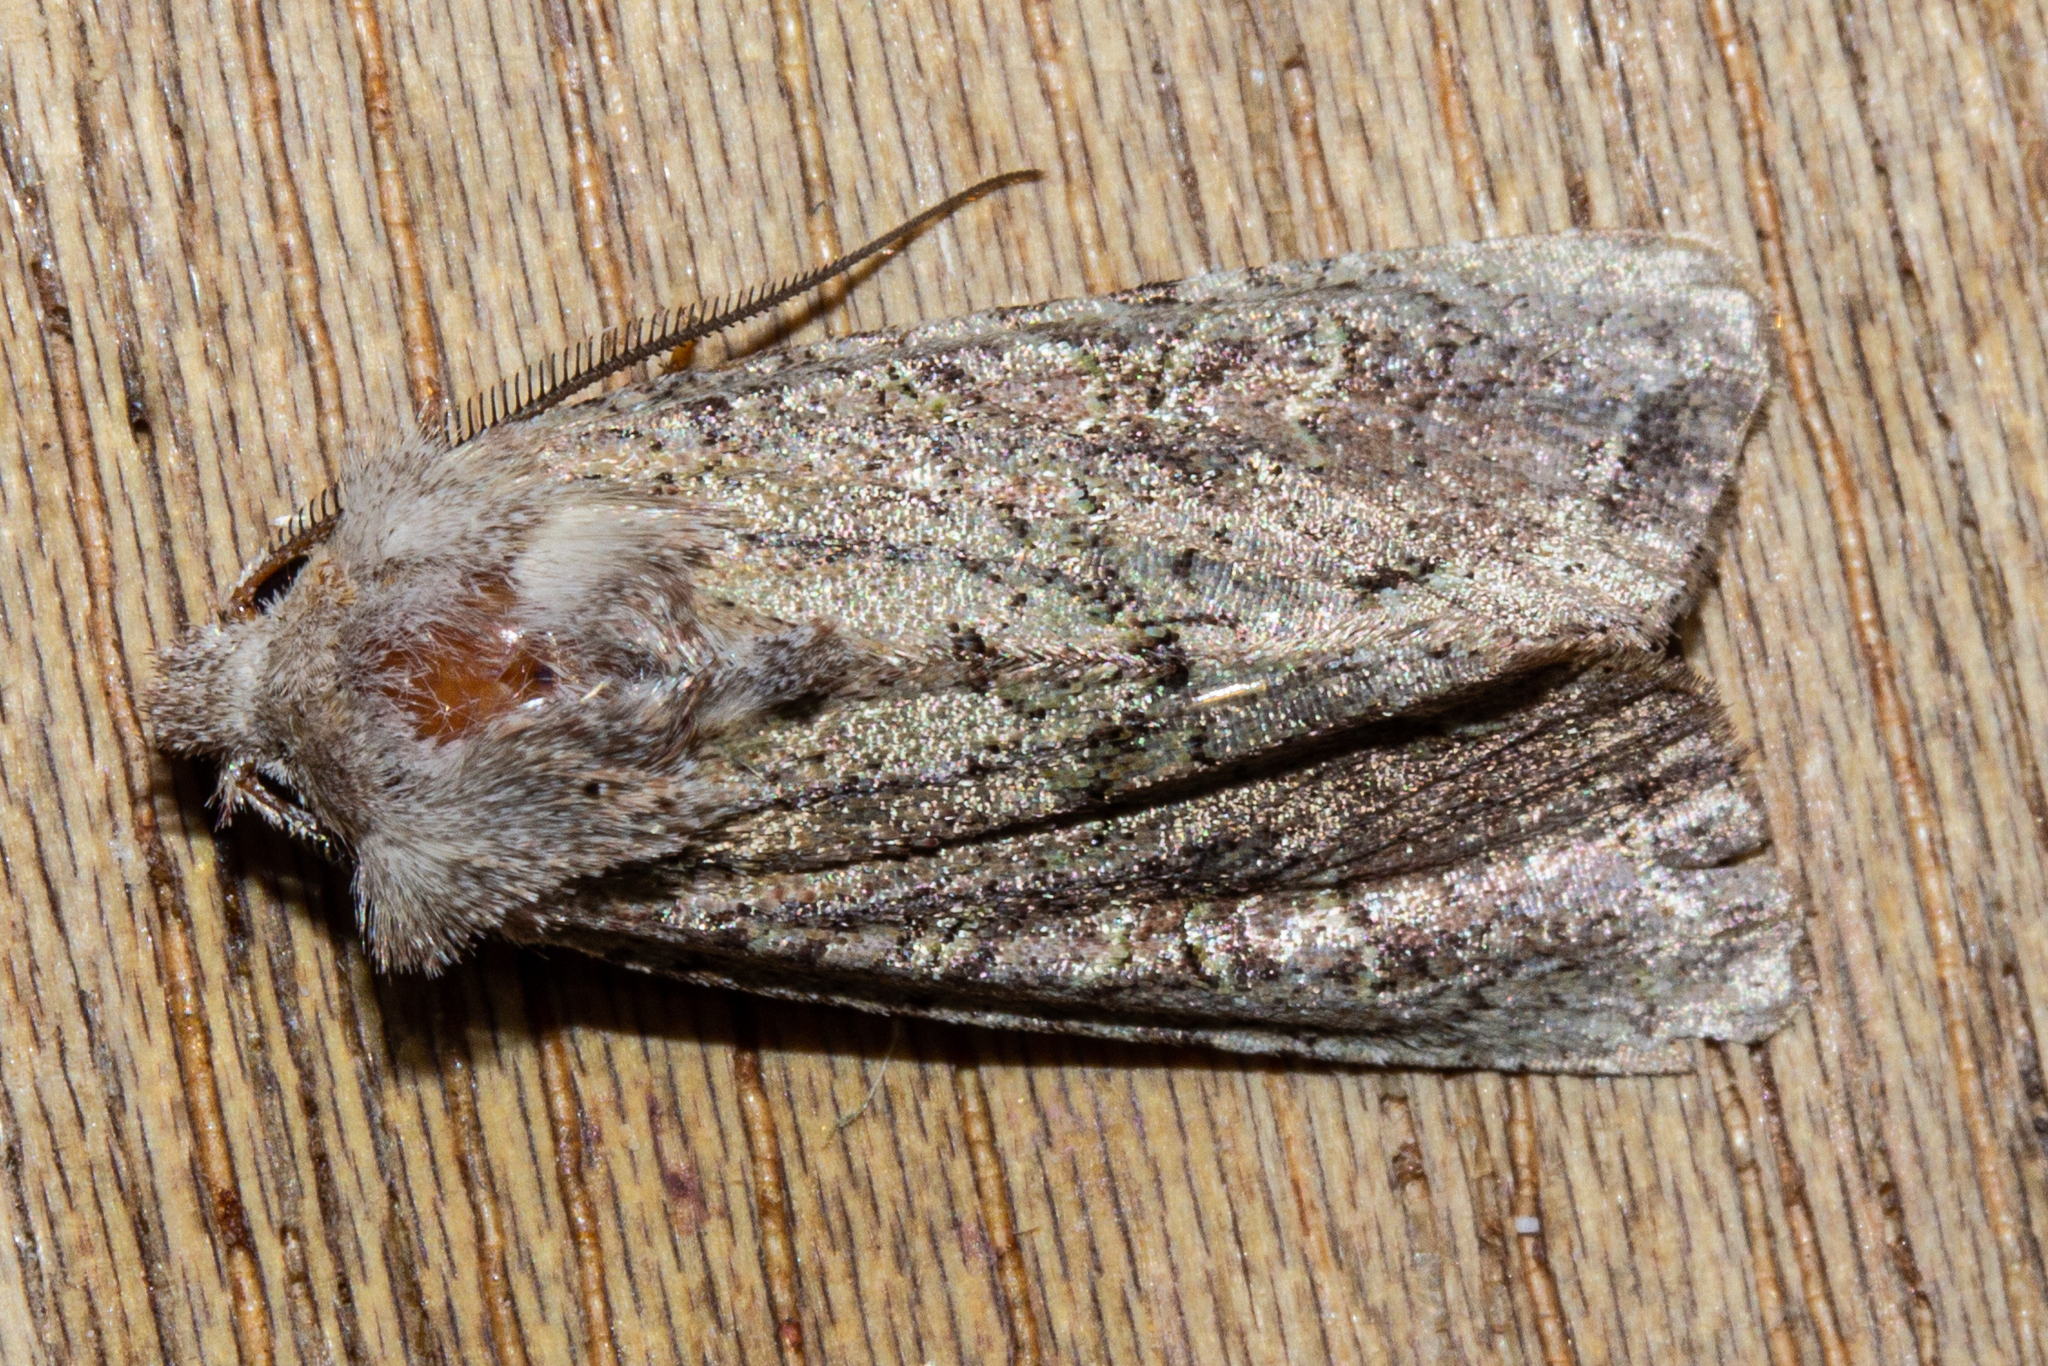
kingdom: Animalia
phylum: Arthropoda
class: Insecta
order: Lepidoptera
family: Noctuidae
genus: Ichneutica
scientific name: Ichneutica skelloni
